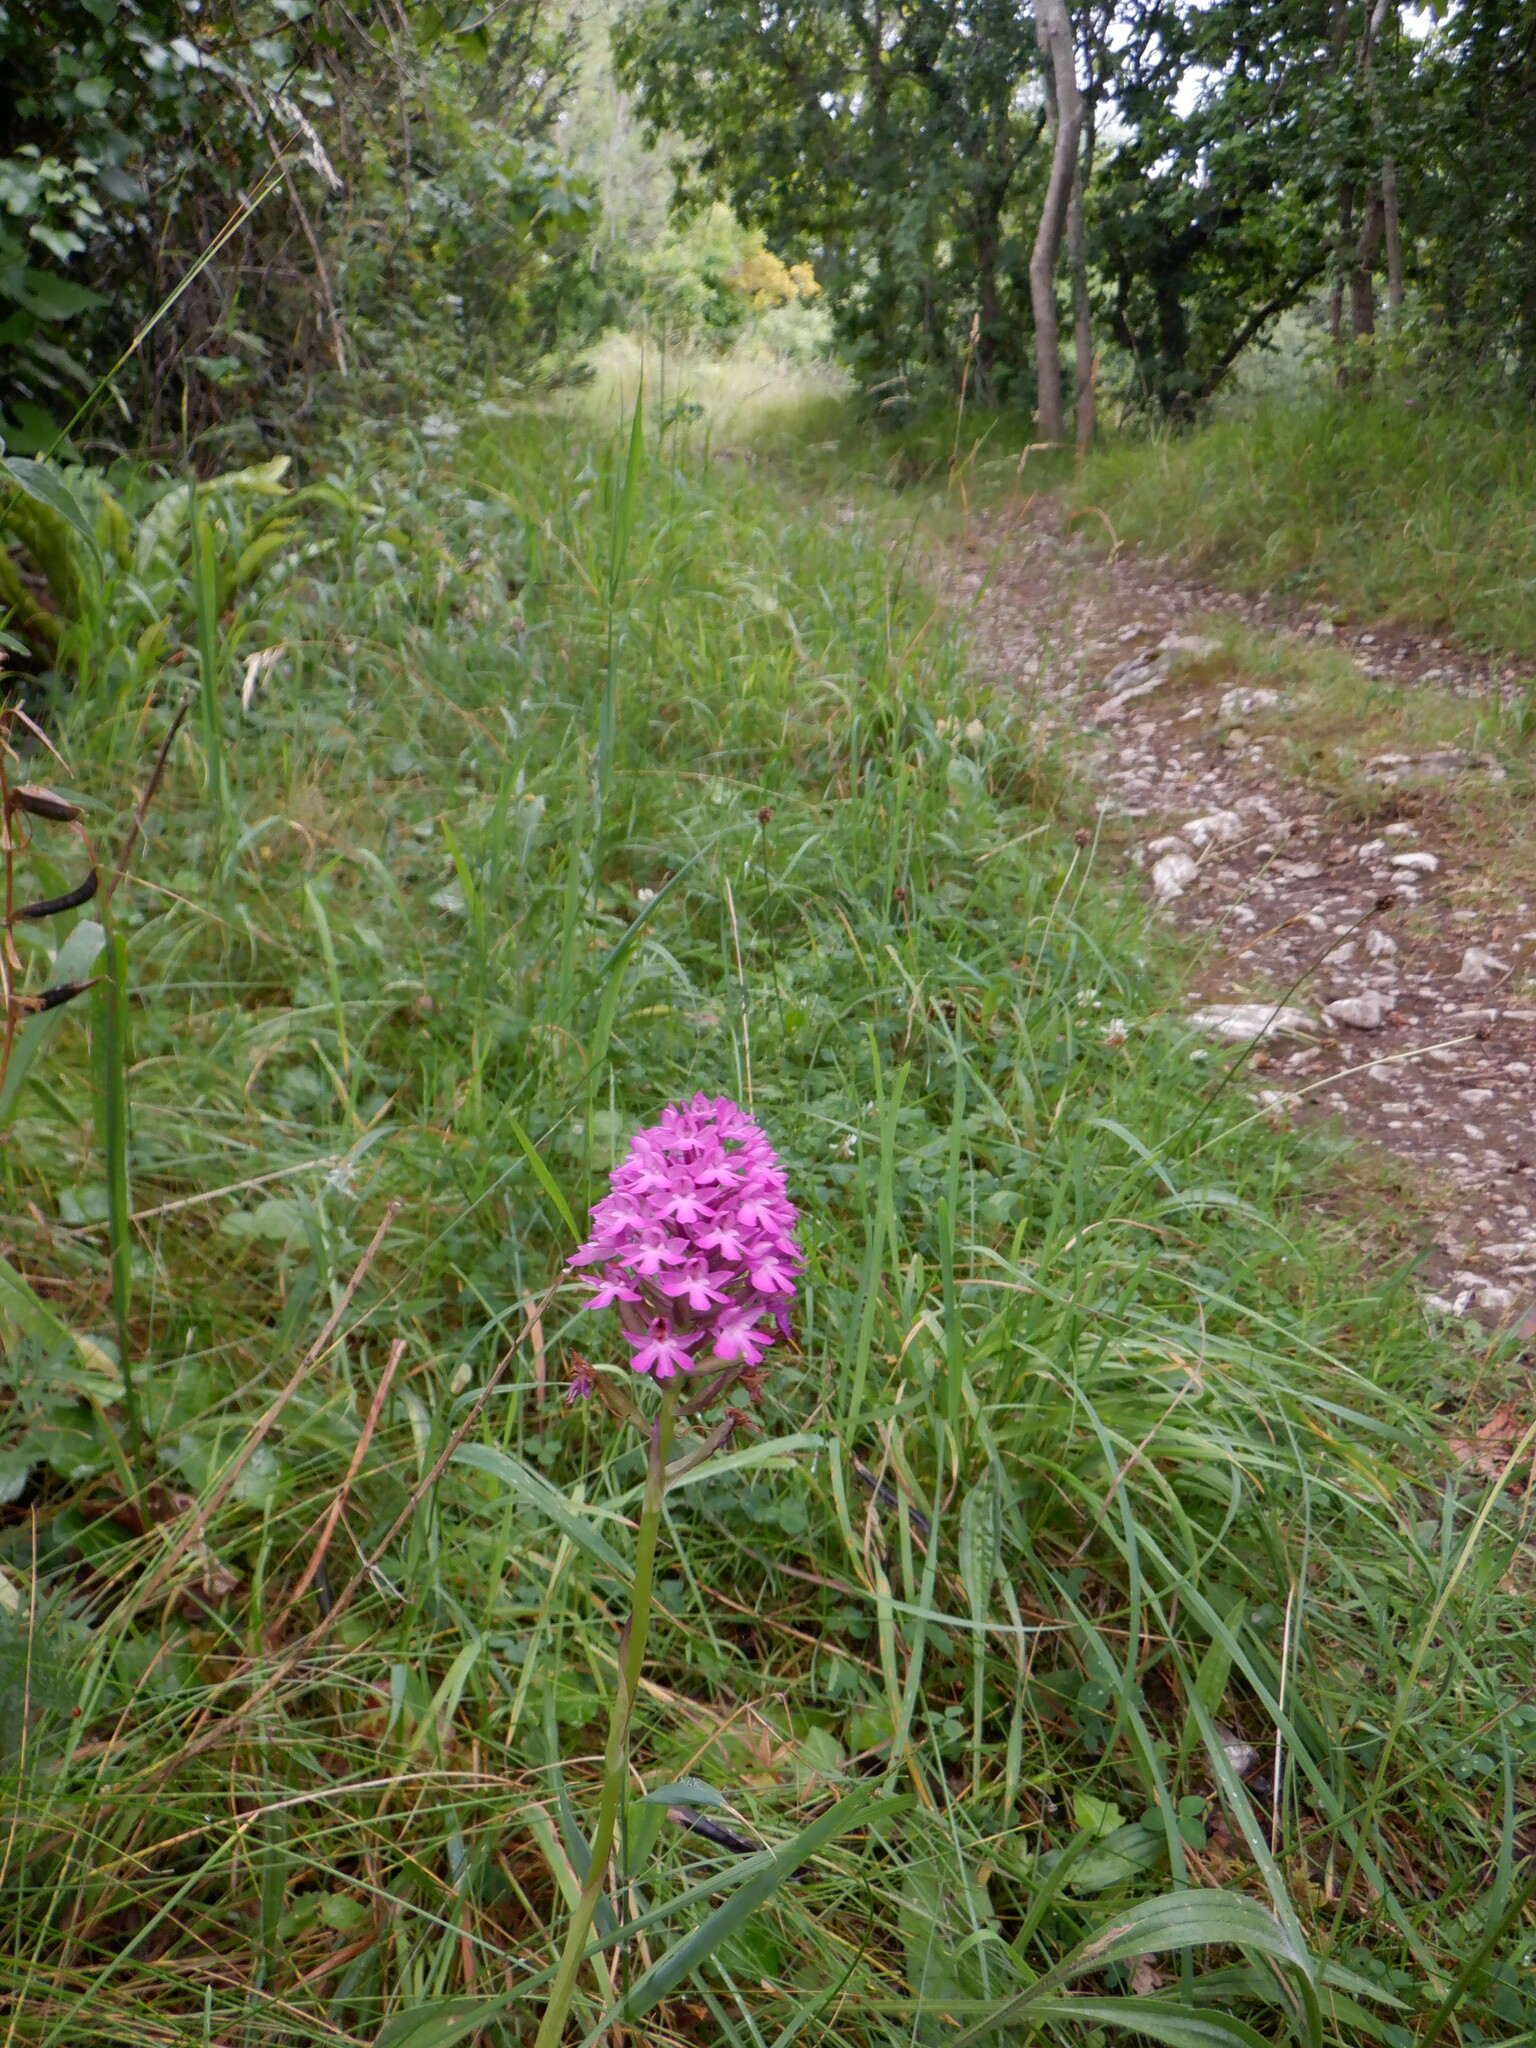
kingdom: Plantae
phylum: Tracheophyta
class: Liliopsida
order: Asparagales
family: Orchidaceae
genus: Anacamptis
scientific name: Anacamptis pyramidalis
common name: Pyramidal orchid
